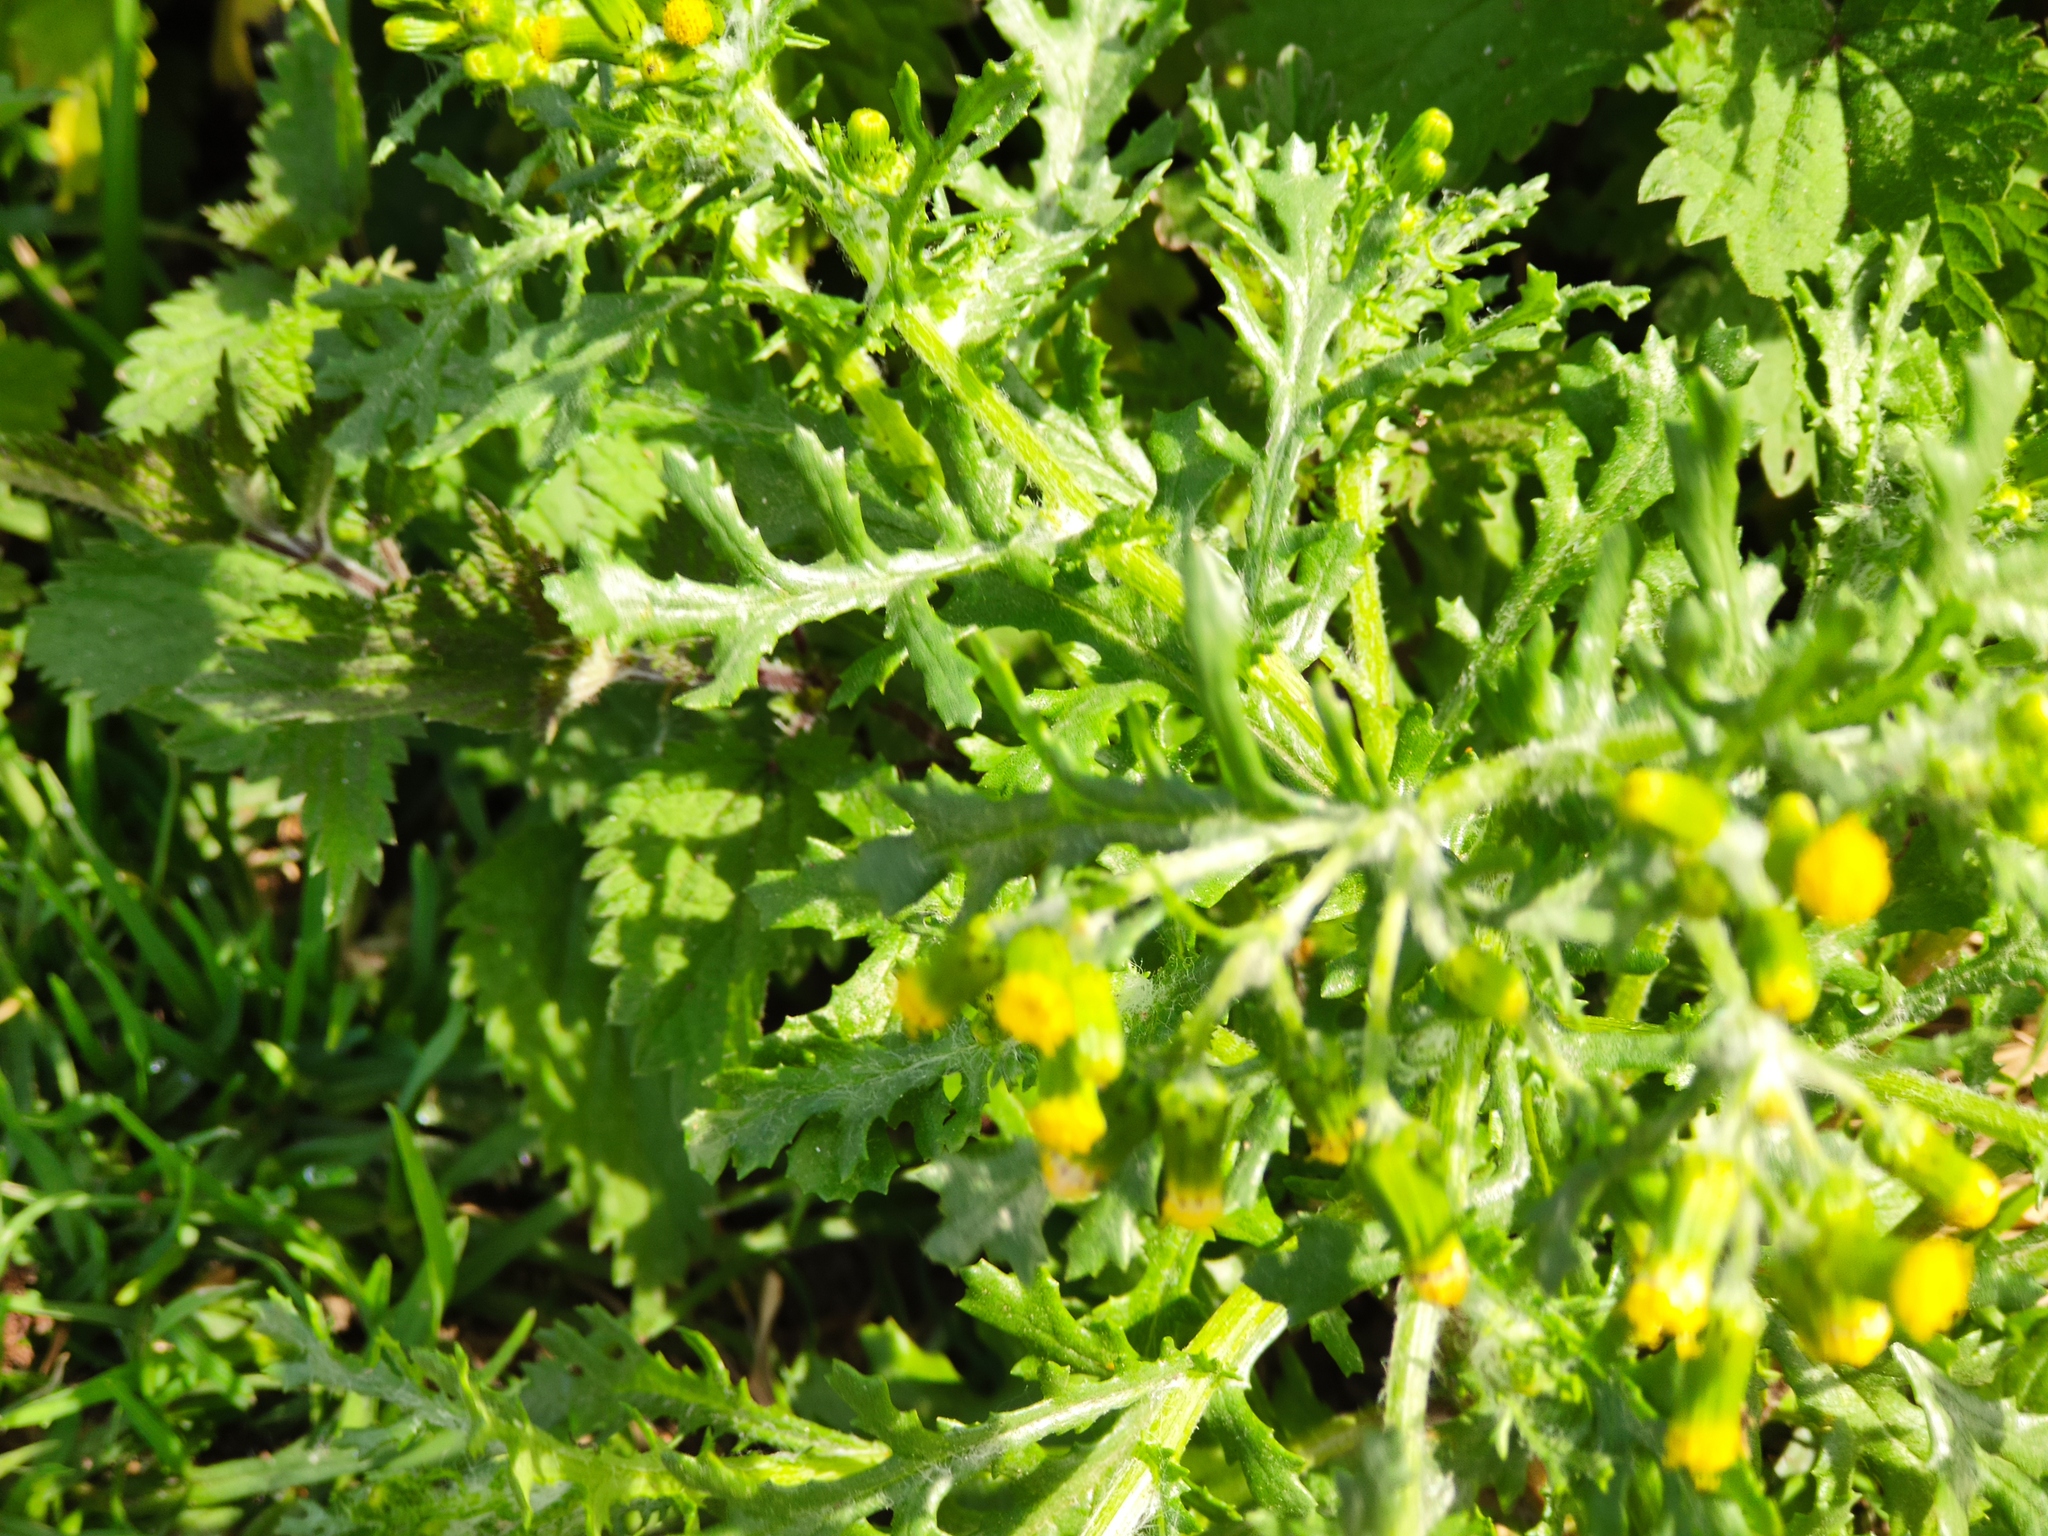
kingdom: Plantae
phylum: Tracheophyta
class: Magnoliopsida
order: Asterales
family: Asteraceae
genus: Senecio
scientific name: Senecio vulgaris
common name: Old-man-in-the-spring
